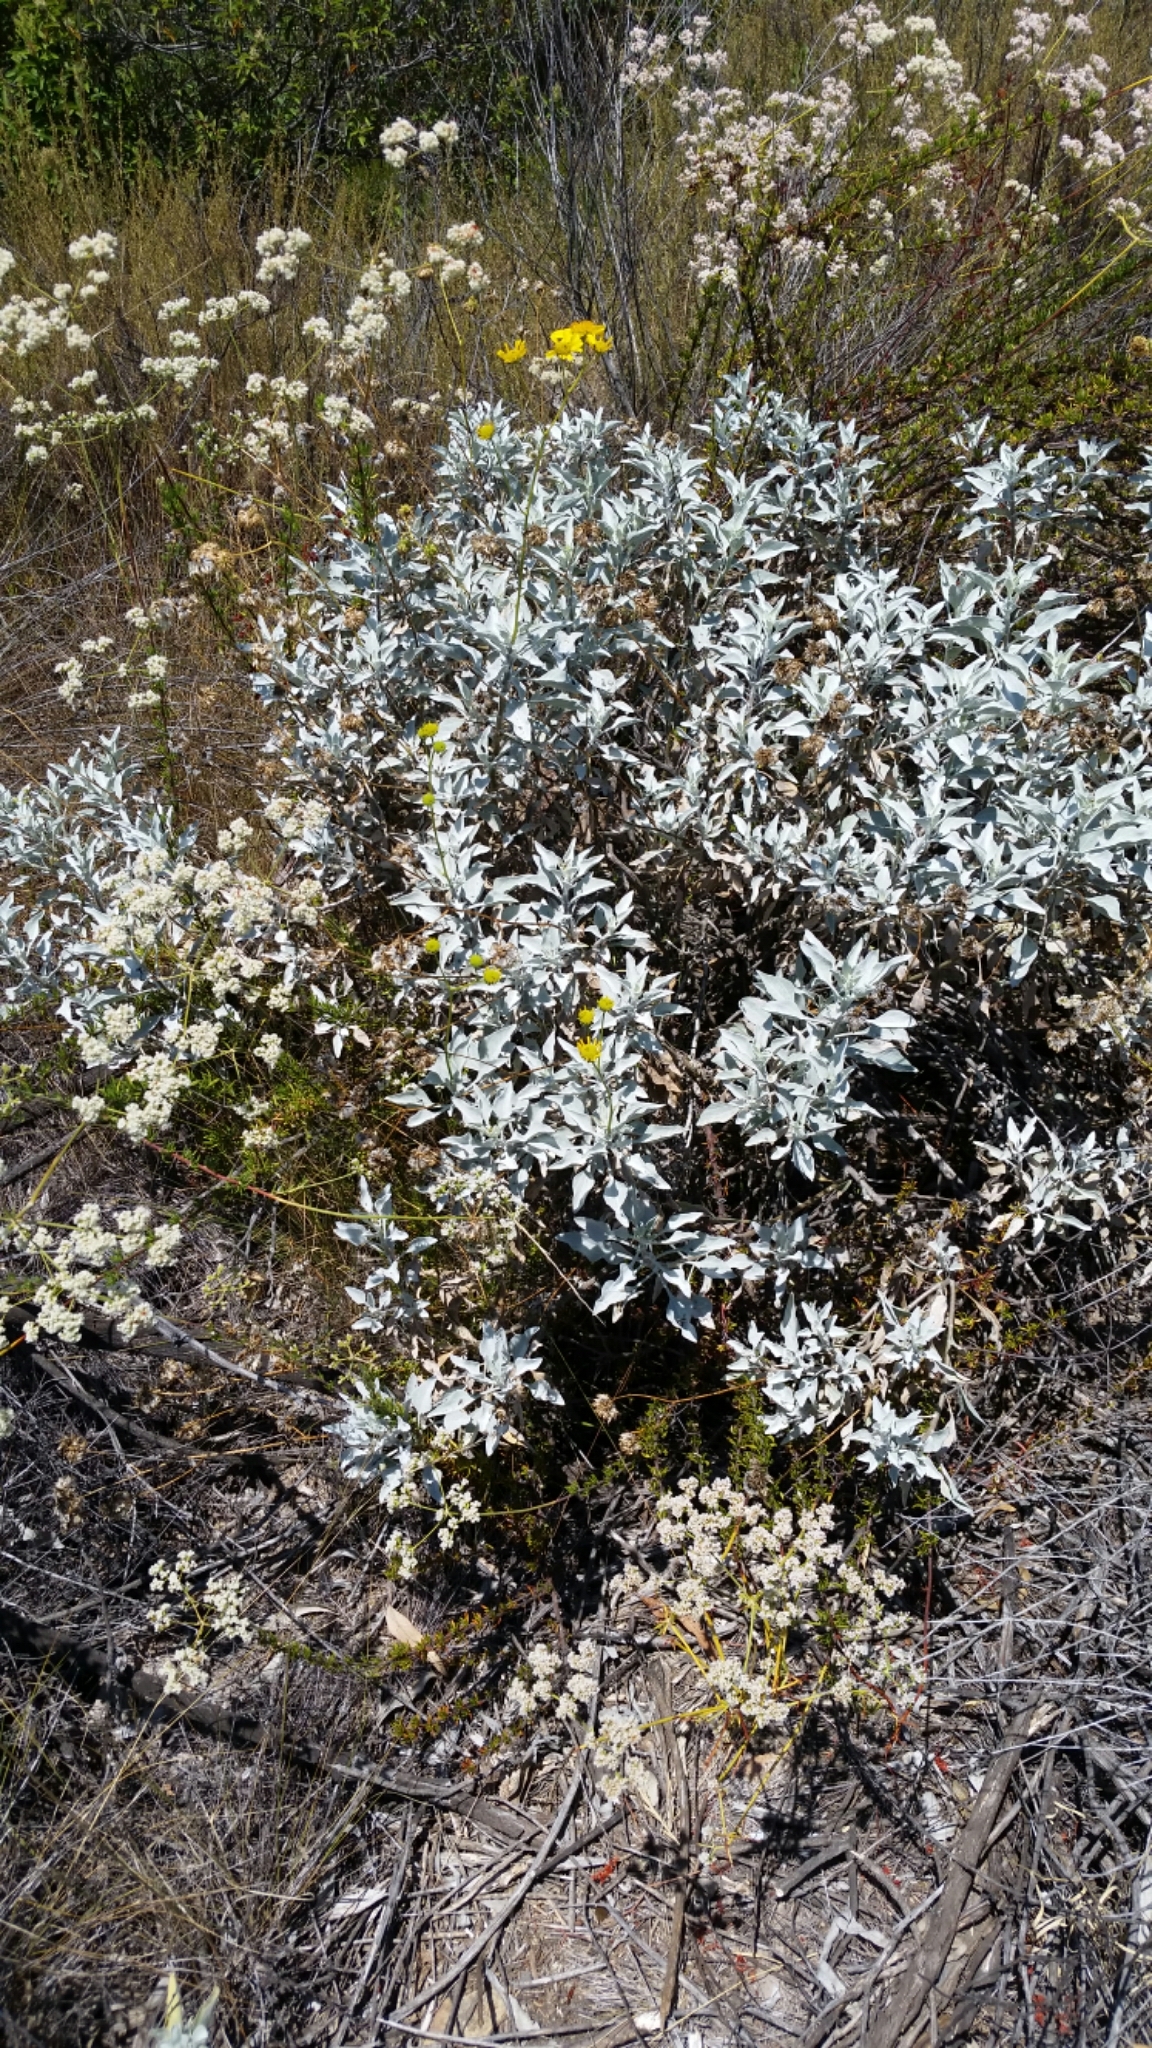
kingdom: Plantae
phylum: Tracheophyta
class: Magnoliopsida
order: Asterales
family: Asteraceae
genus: Encelia
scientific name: Encelia farinosa
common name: Brittlebush
